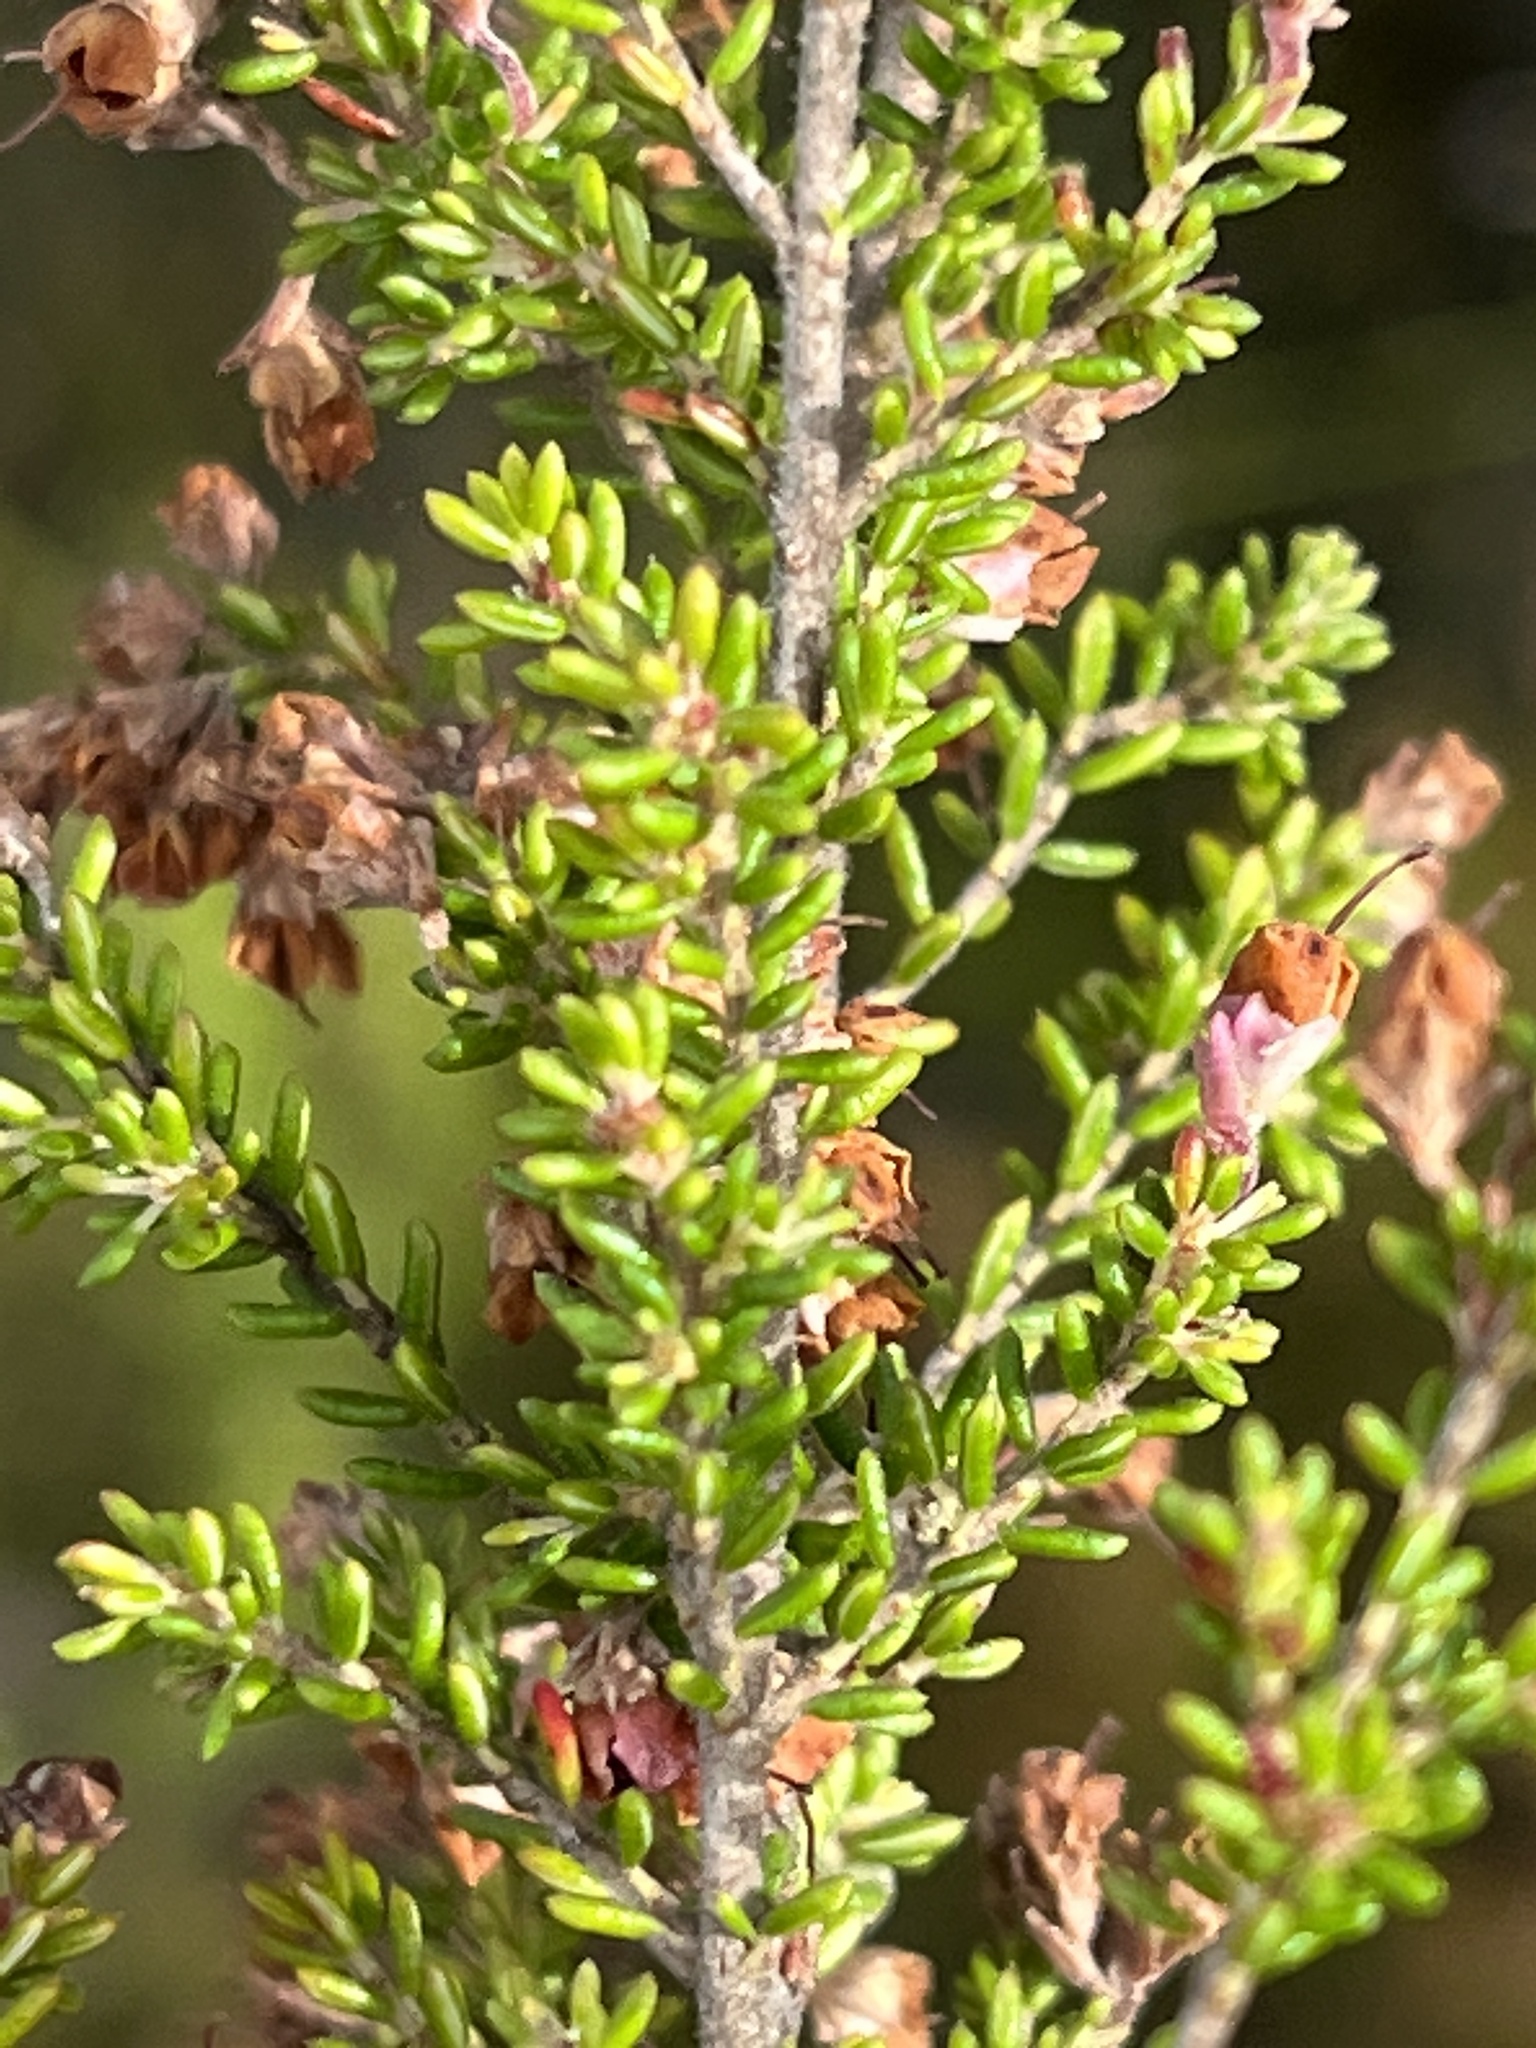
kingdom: Plantae
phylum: Tracheophyta
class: Magnoliopsida
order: Ericales
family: Ericaceae
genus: Erica
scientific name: Erica melanthera
